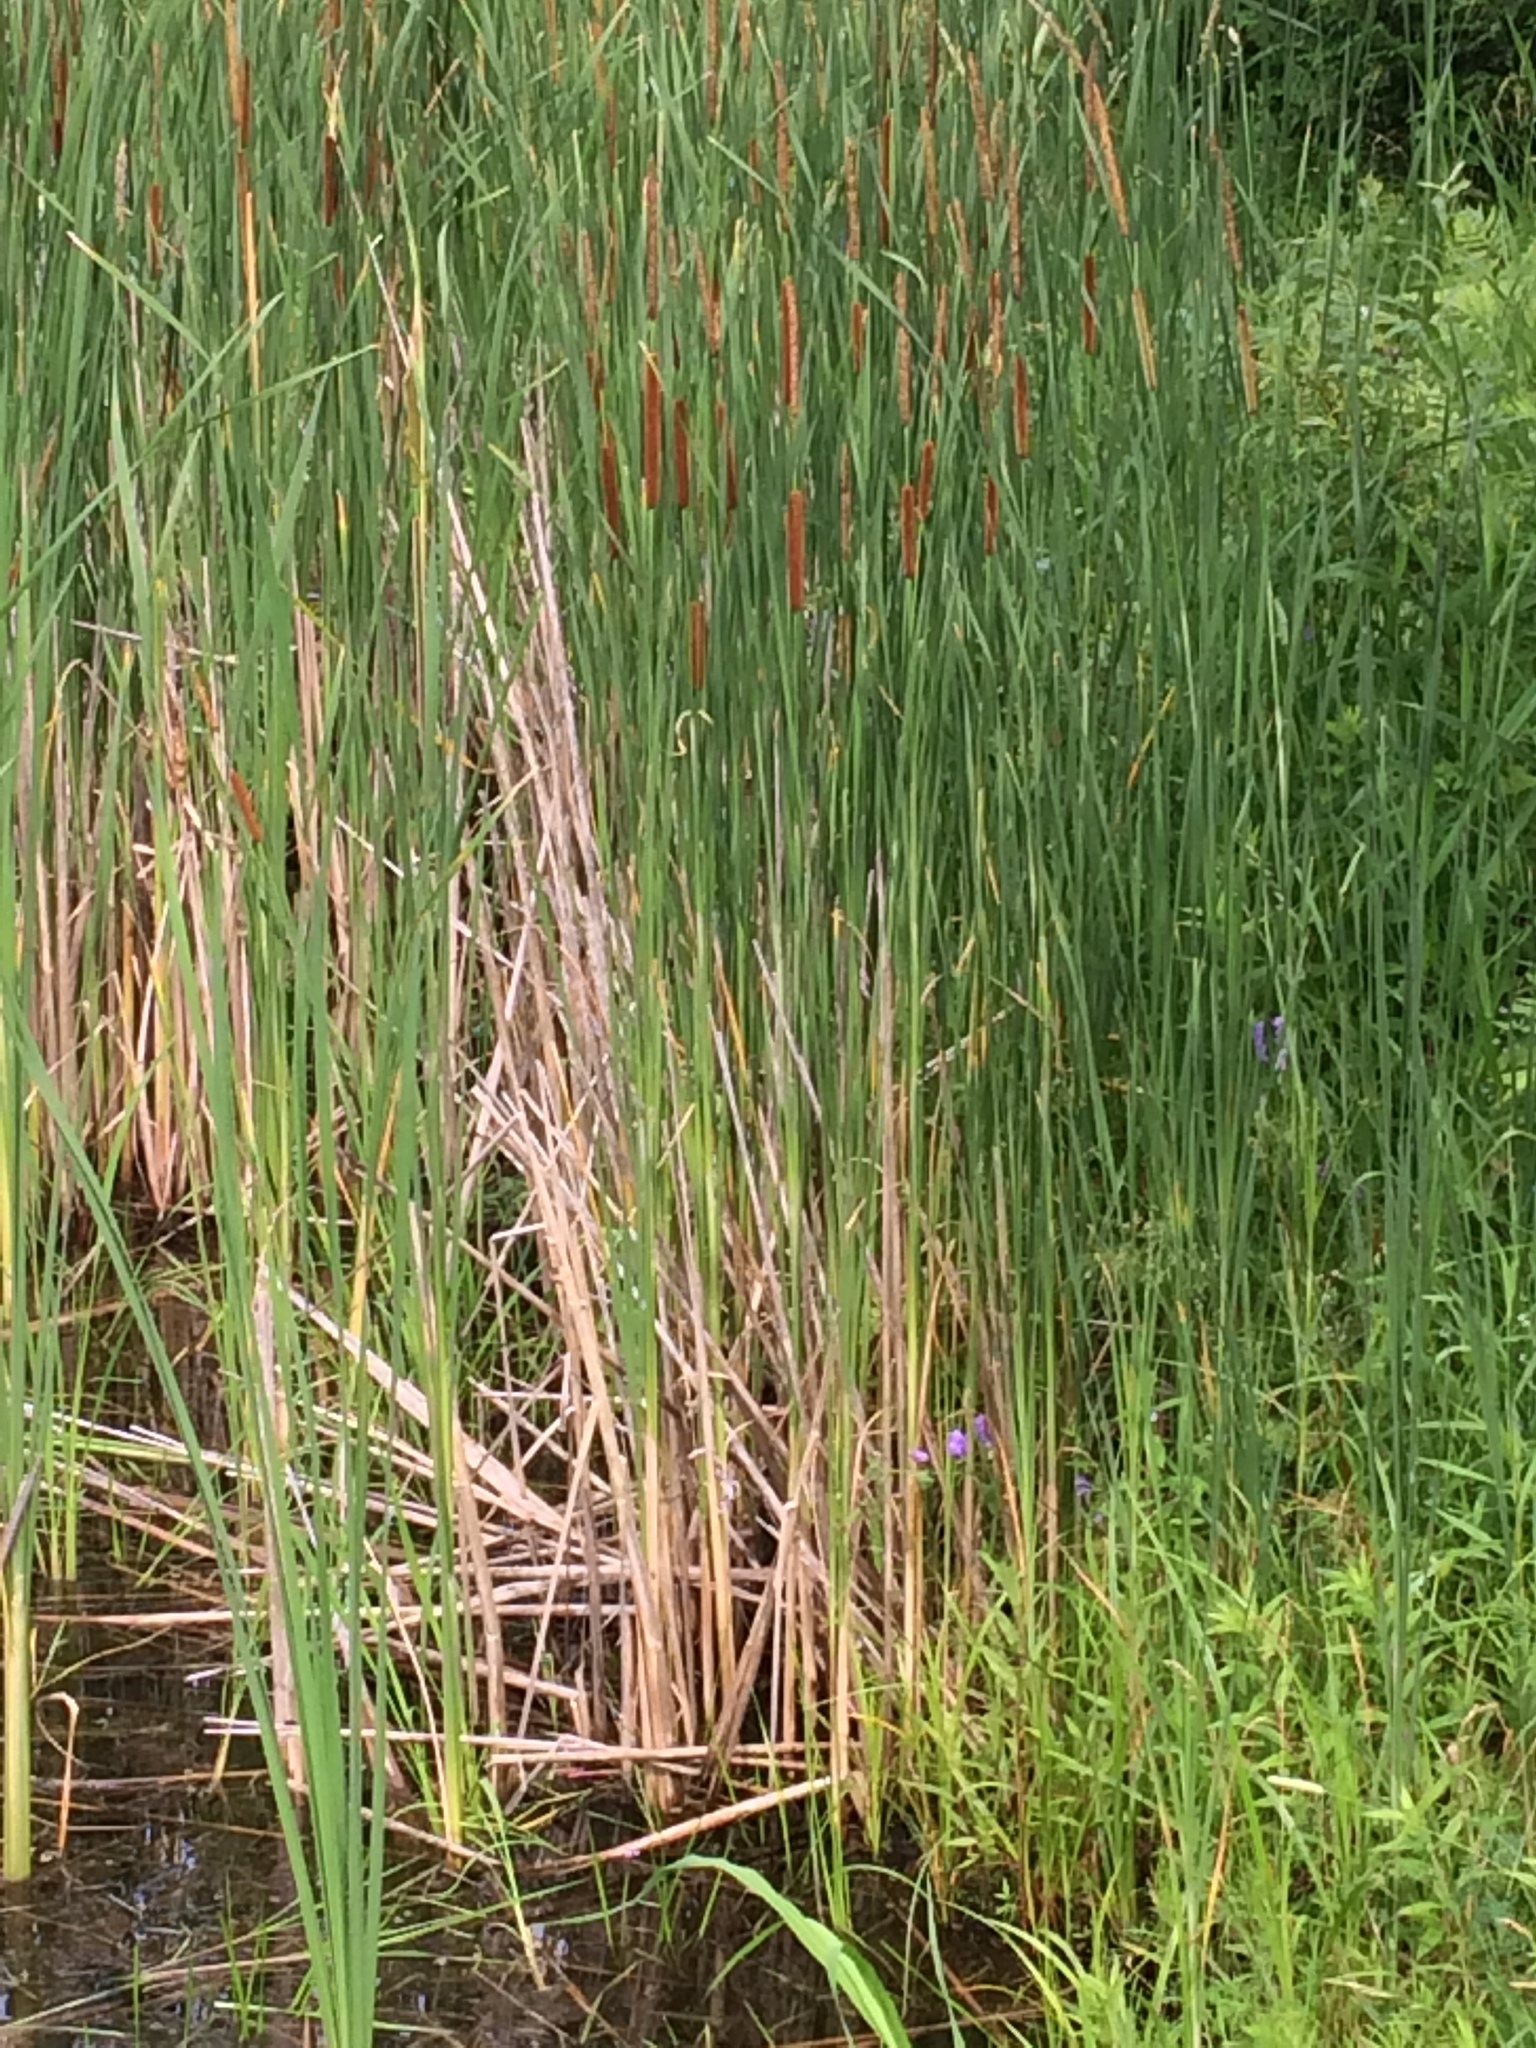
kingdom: Plantae
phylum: Tracheophyta
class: Liliopsida
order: Poales
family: Typhaceae
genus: Typha
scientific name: Typha angustifolia
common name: Lesser bulrush
